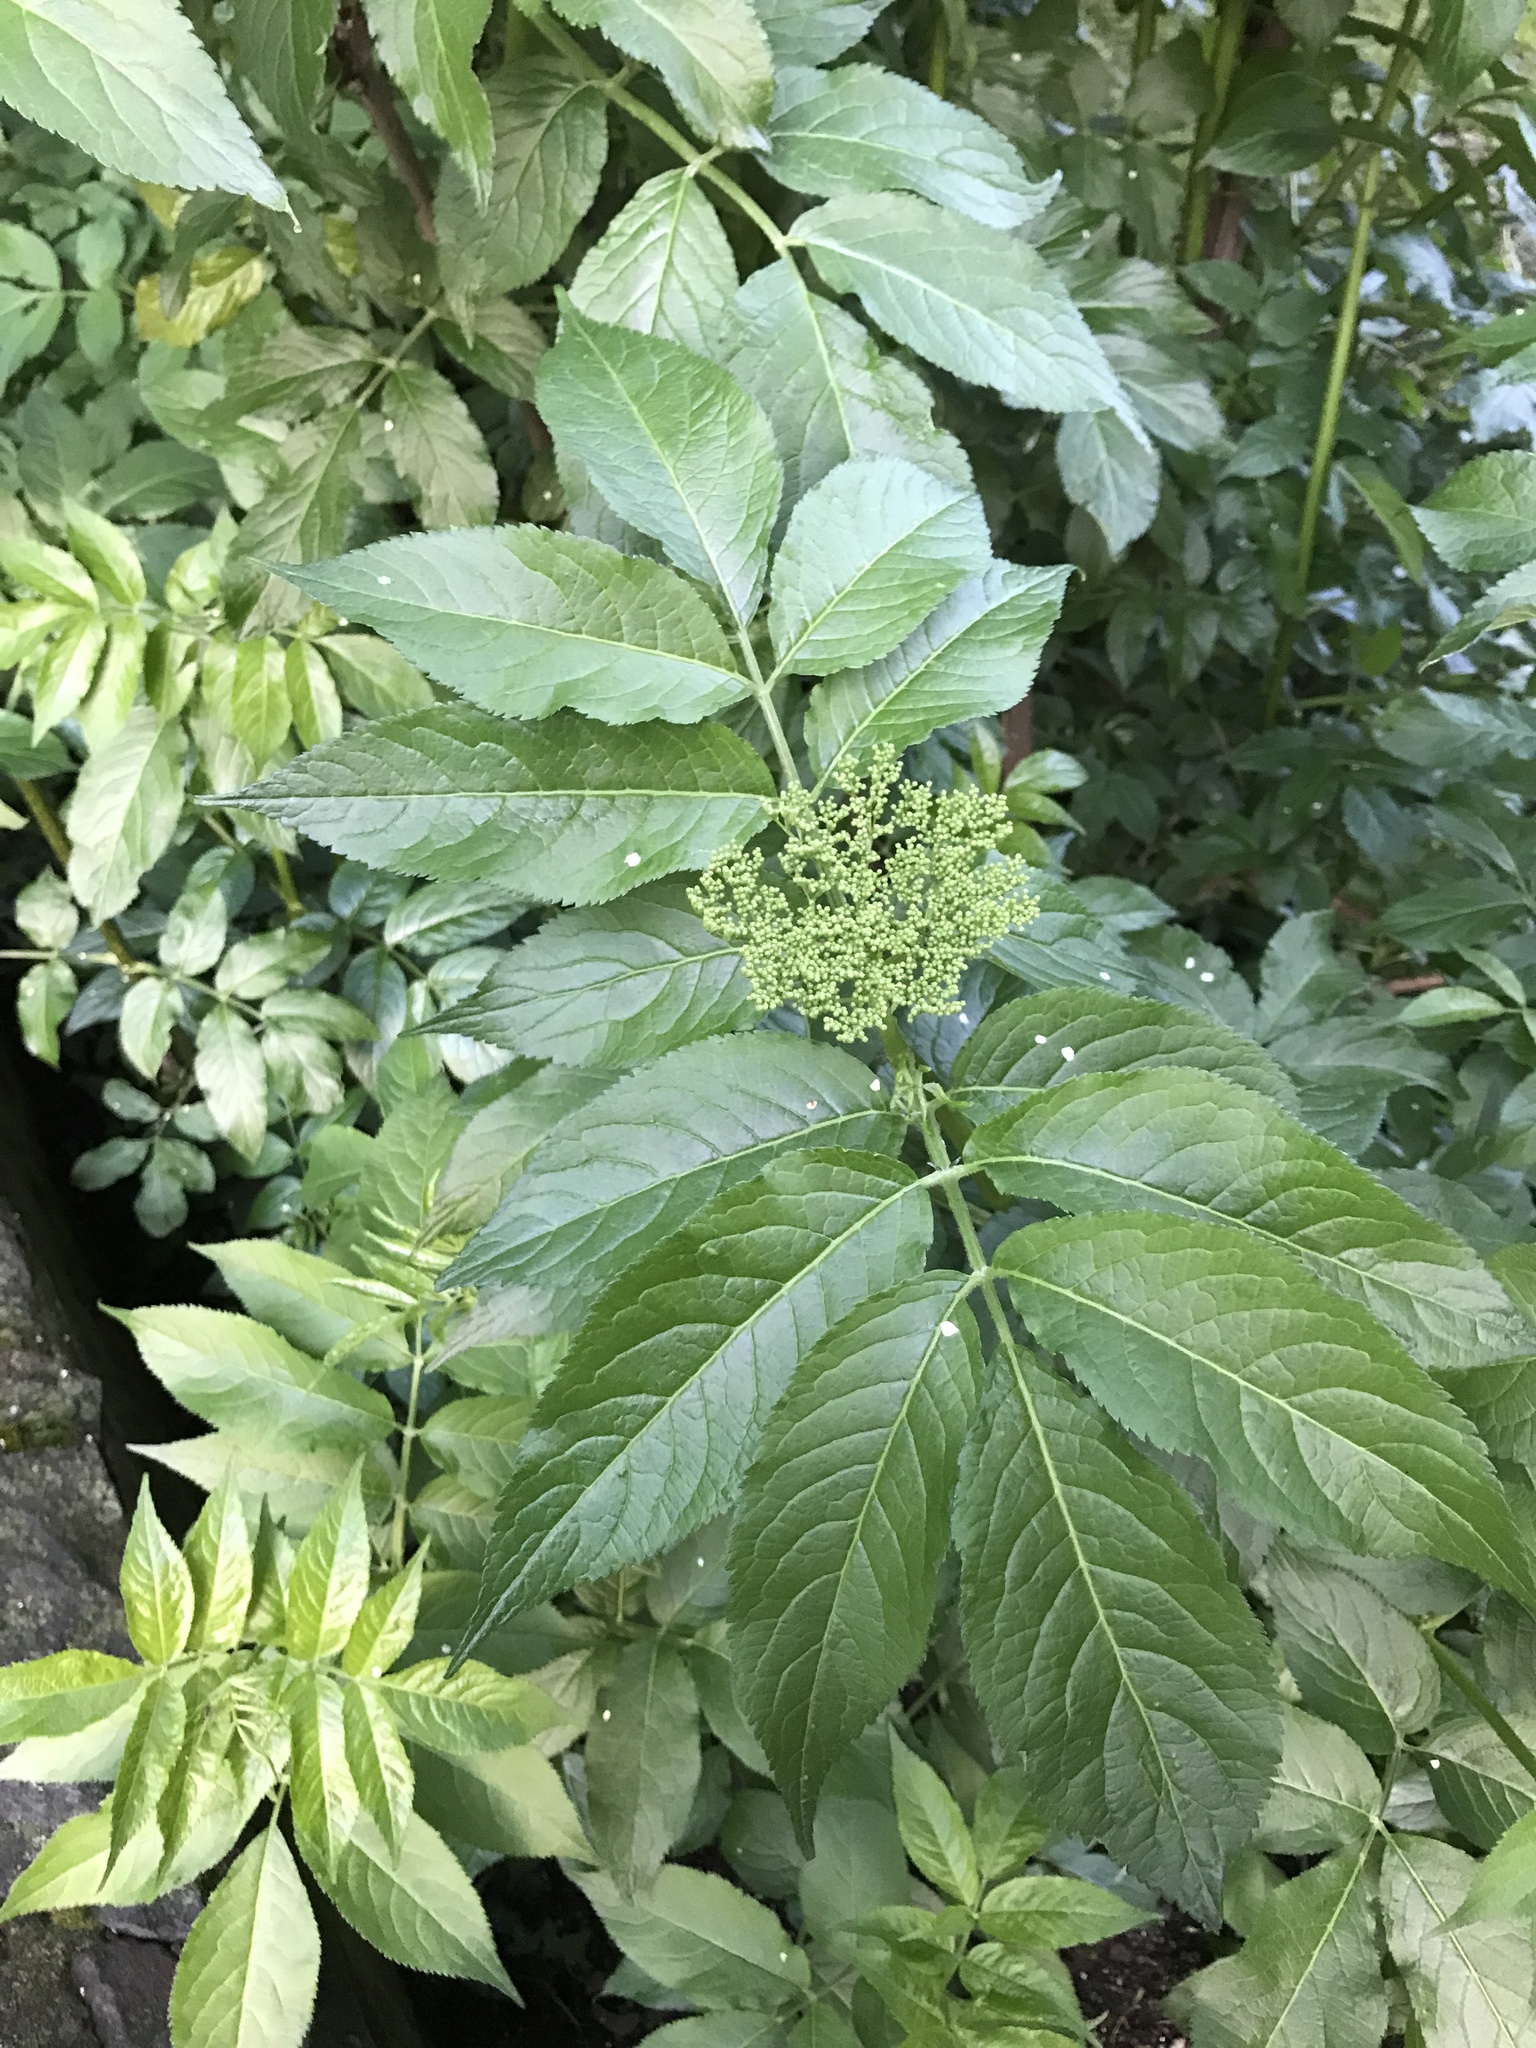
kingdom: Plantae
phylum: Tracheophyta
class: Magnoliopsida
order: Dipsacales
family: Viburnaceae
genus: Sambucus
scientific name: Sambucus nigra
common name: Elder
